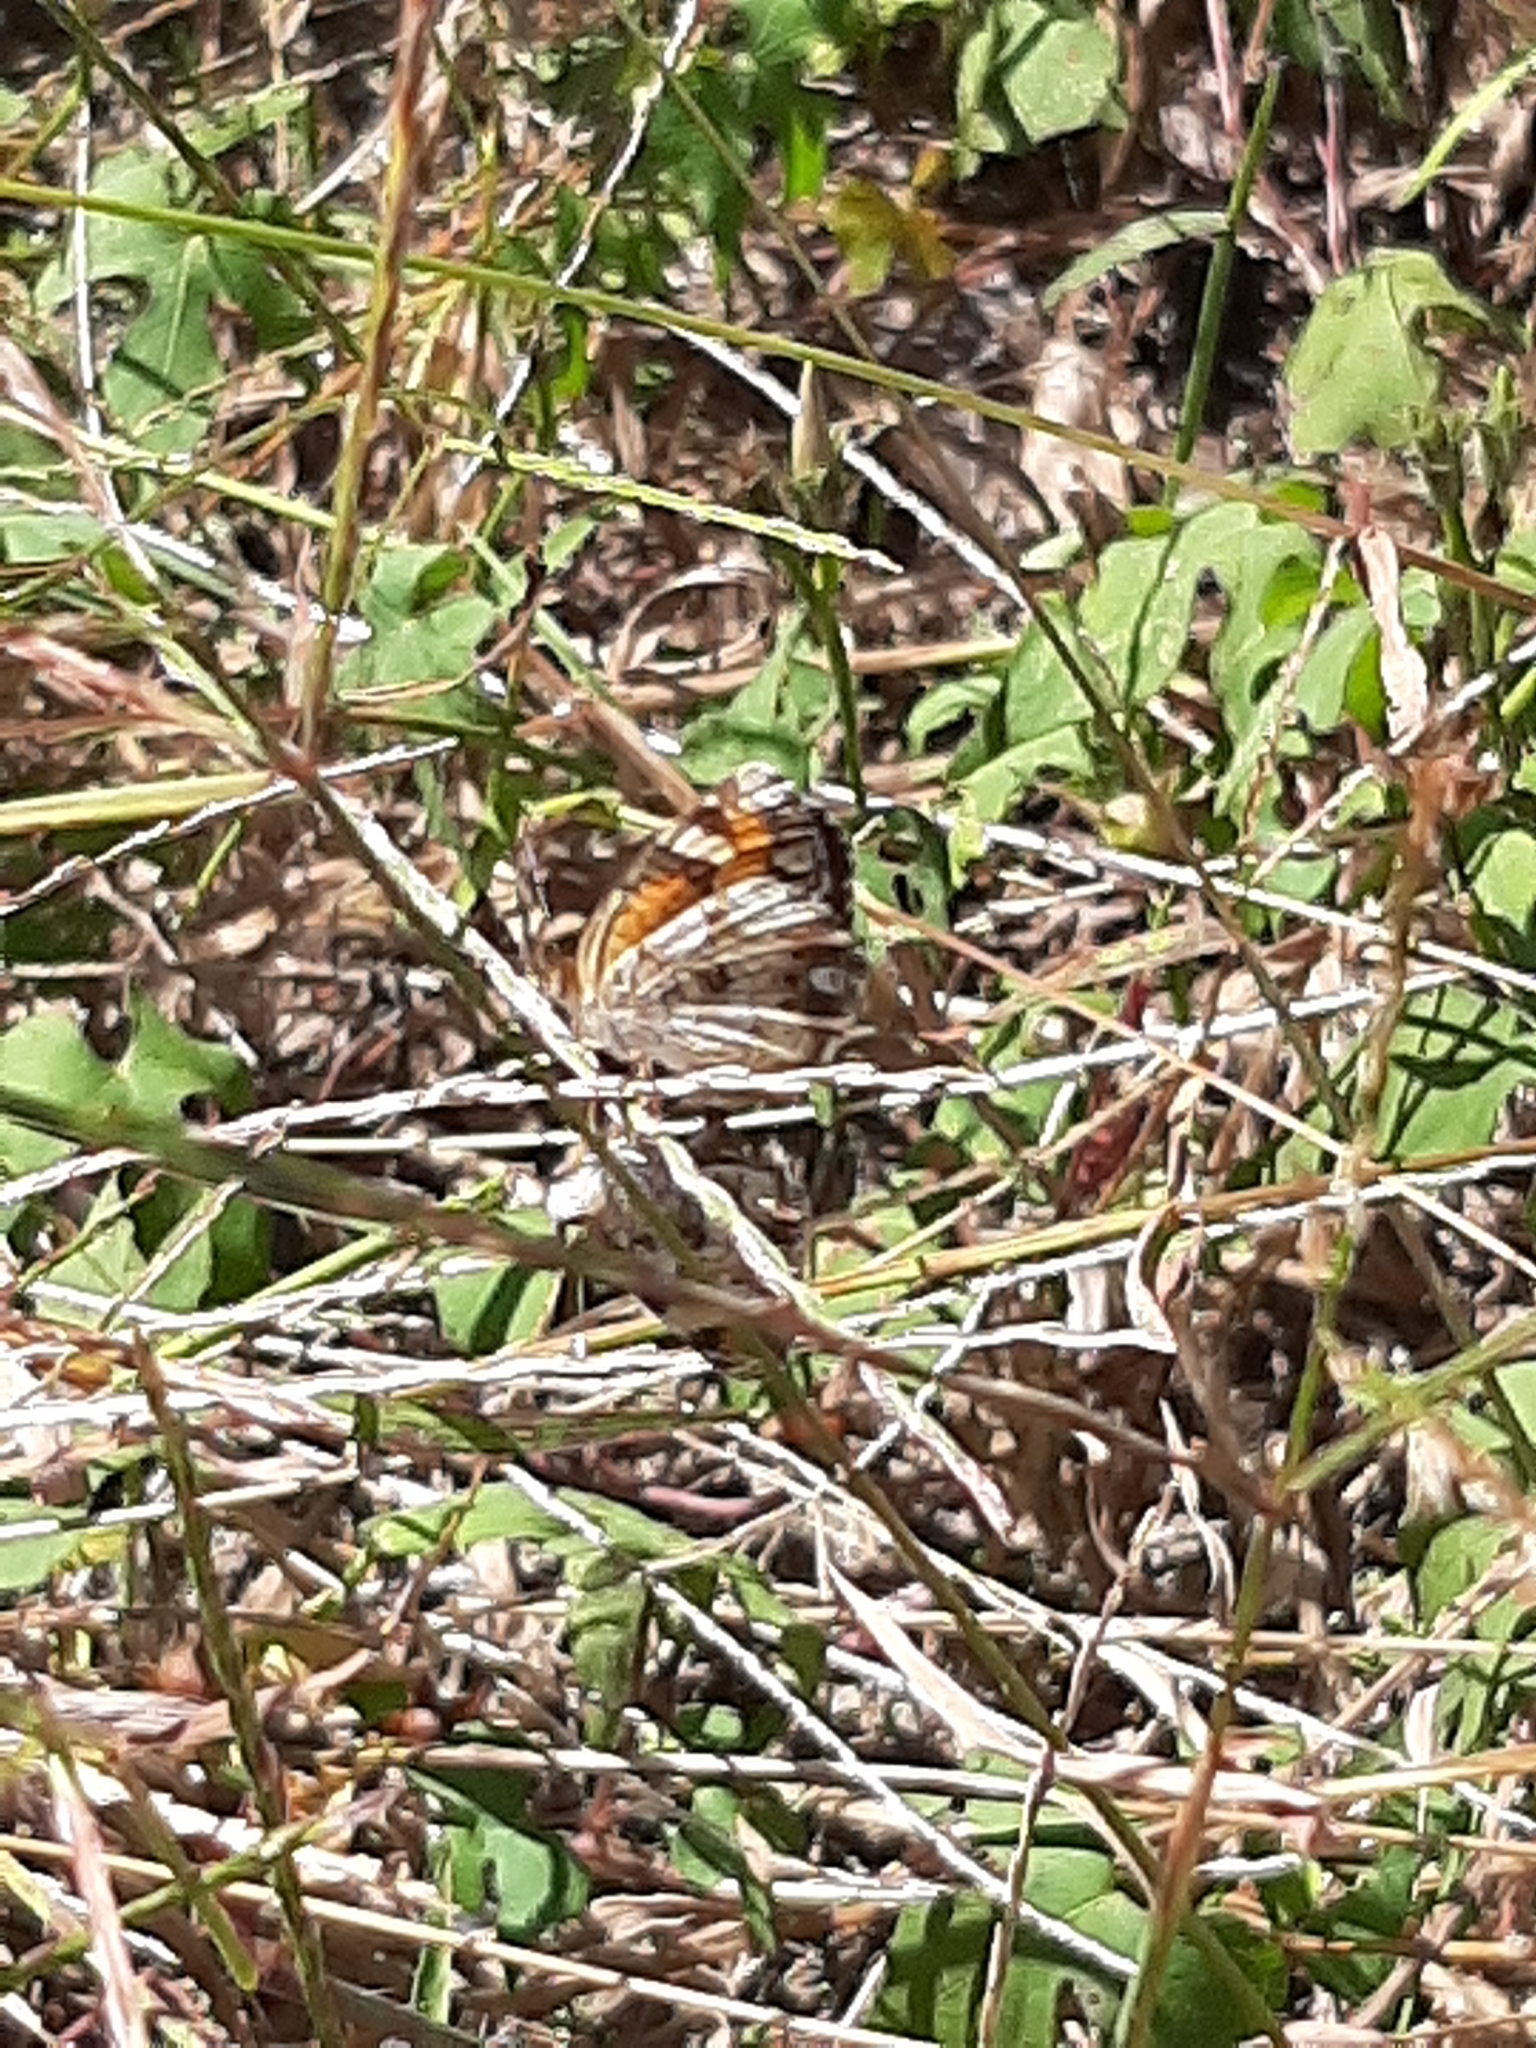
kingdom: Animalia
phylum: Arthropoda
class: Insecta
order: Lepidoptera
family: Nymphalidae
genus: Phyciodes
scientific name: Phyciodes phaon
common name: Phaon crescent
